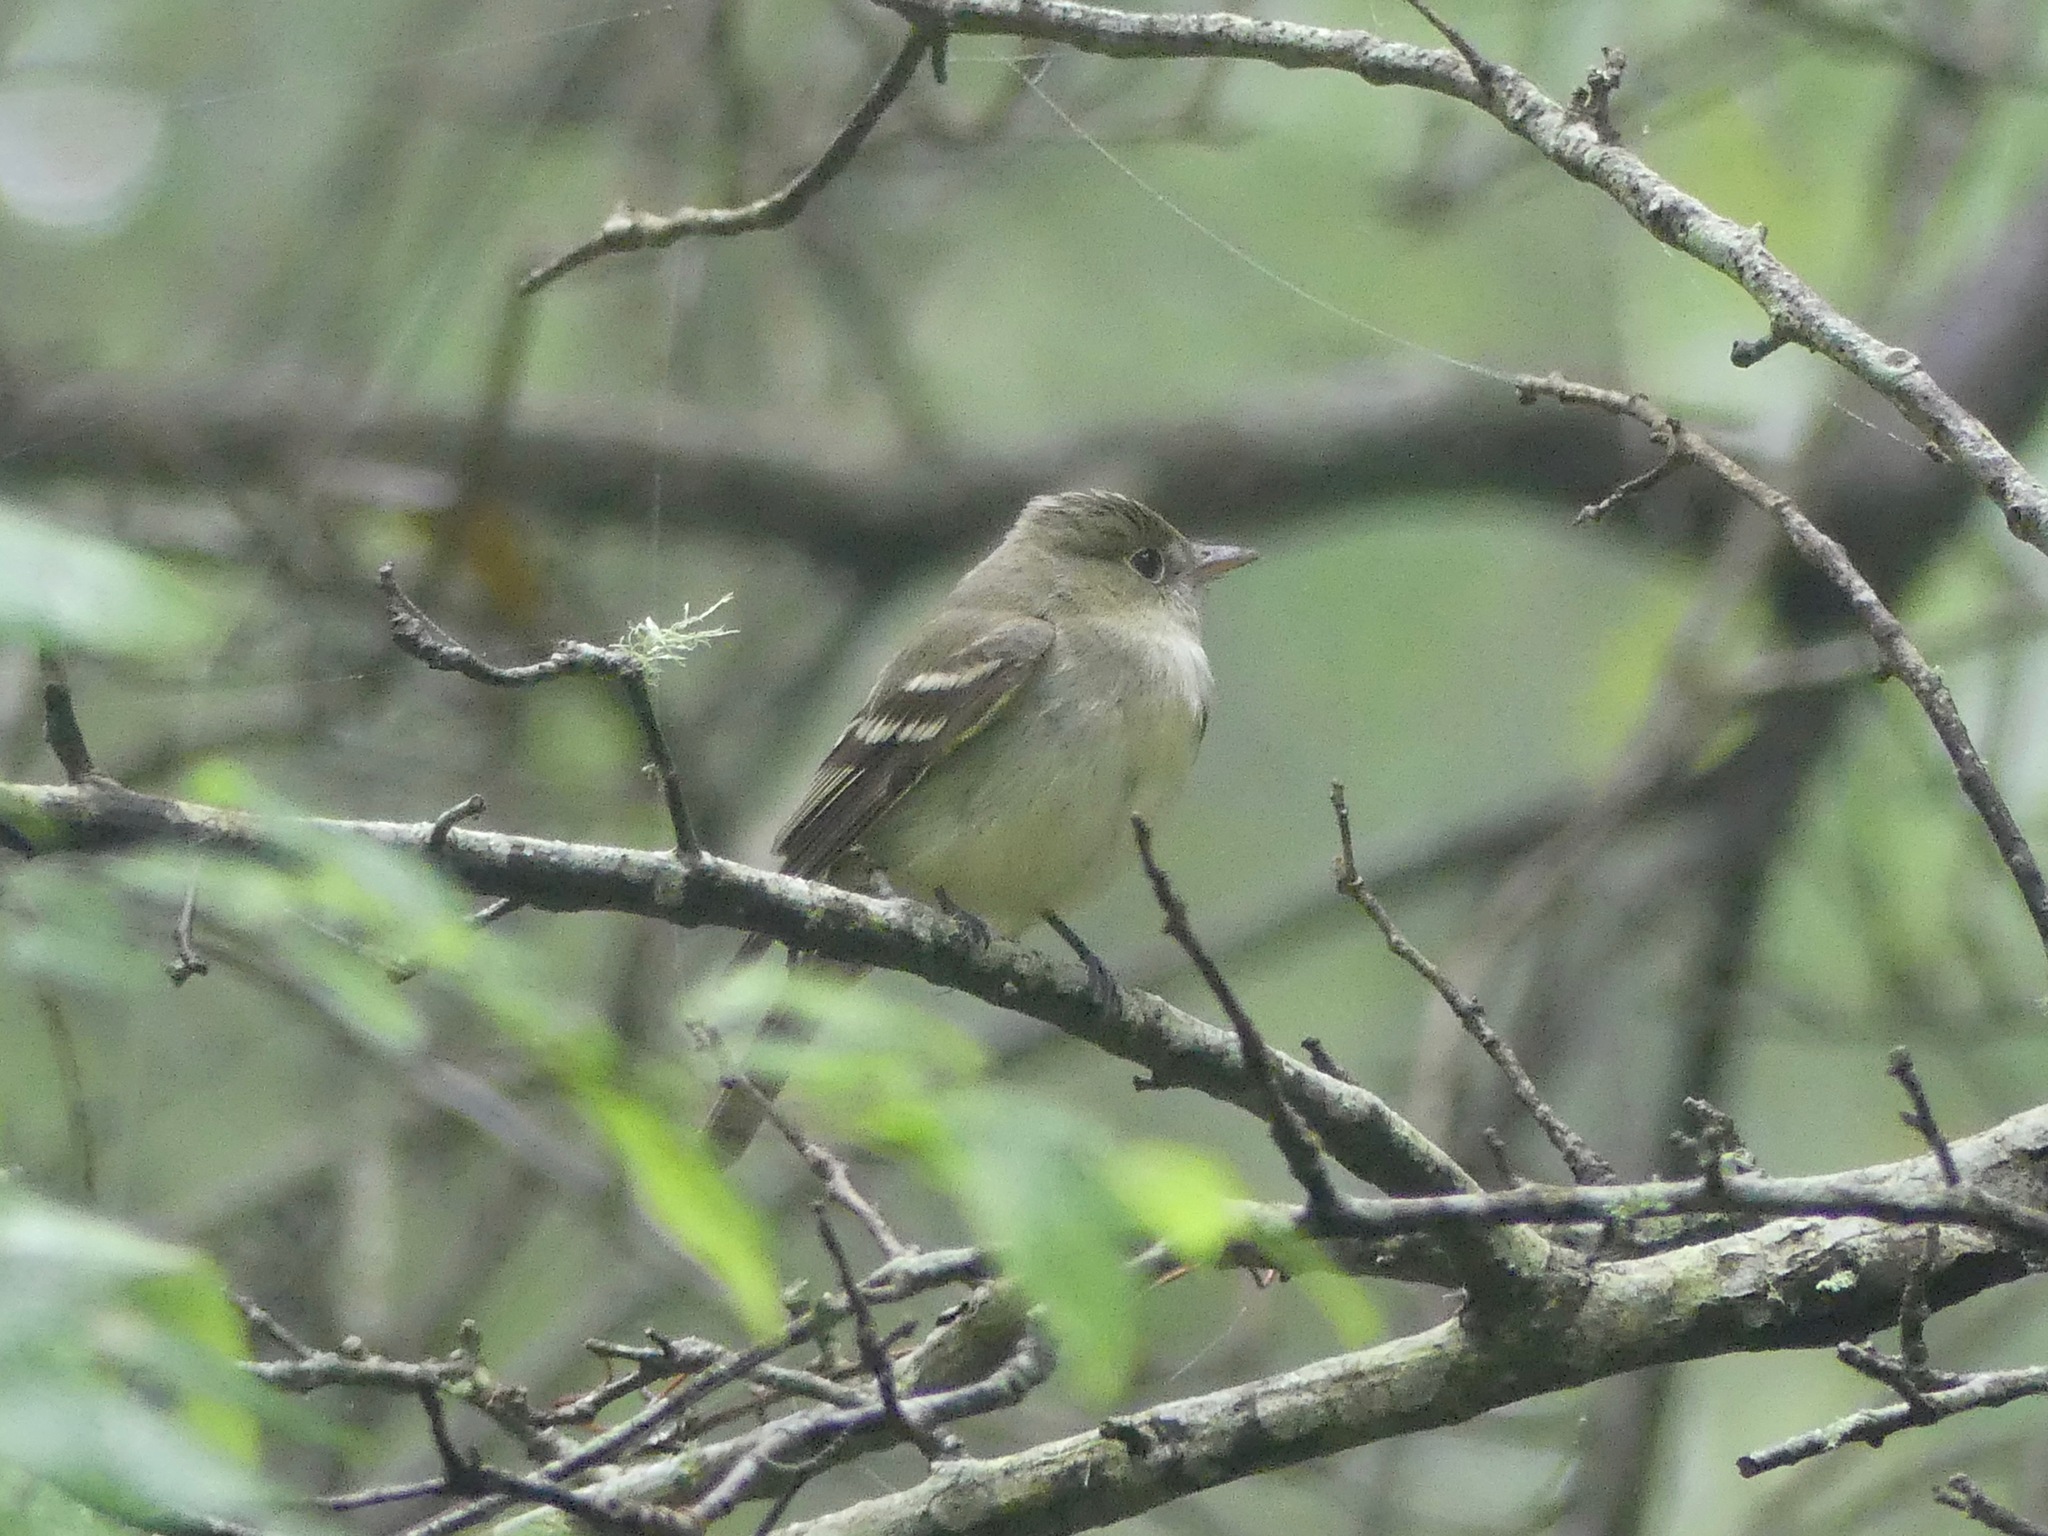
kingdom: Animalia
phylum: Chordata
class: Aves
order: Passeriformes
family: Tyrannidae
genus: Empidonax
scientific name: Empidonax virescens
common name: Acadian flycatcher
